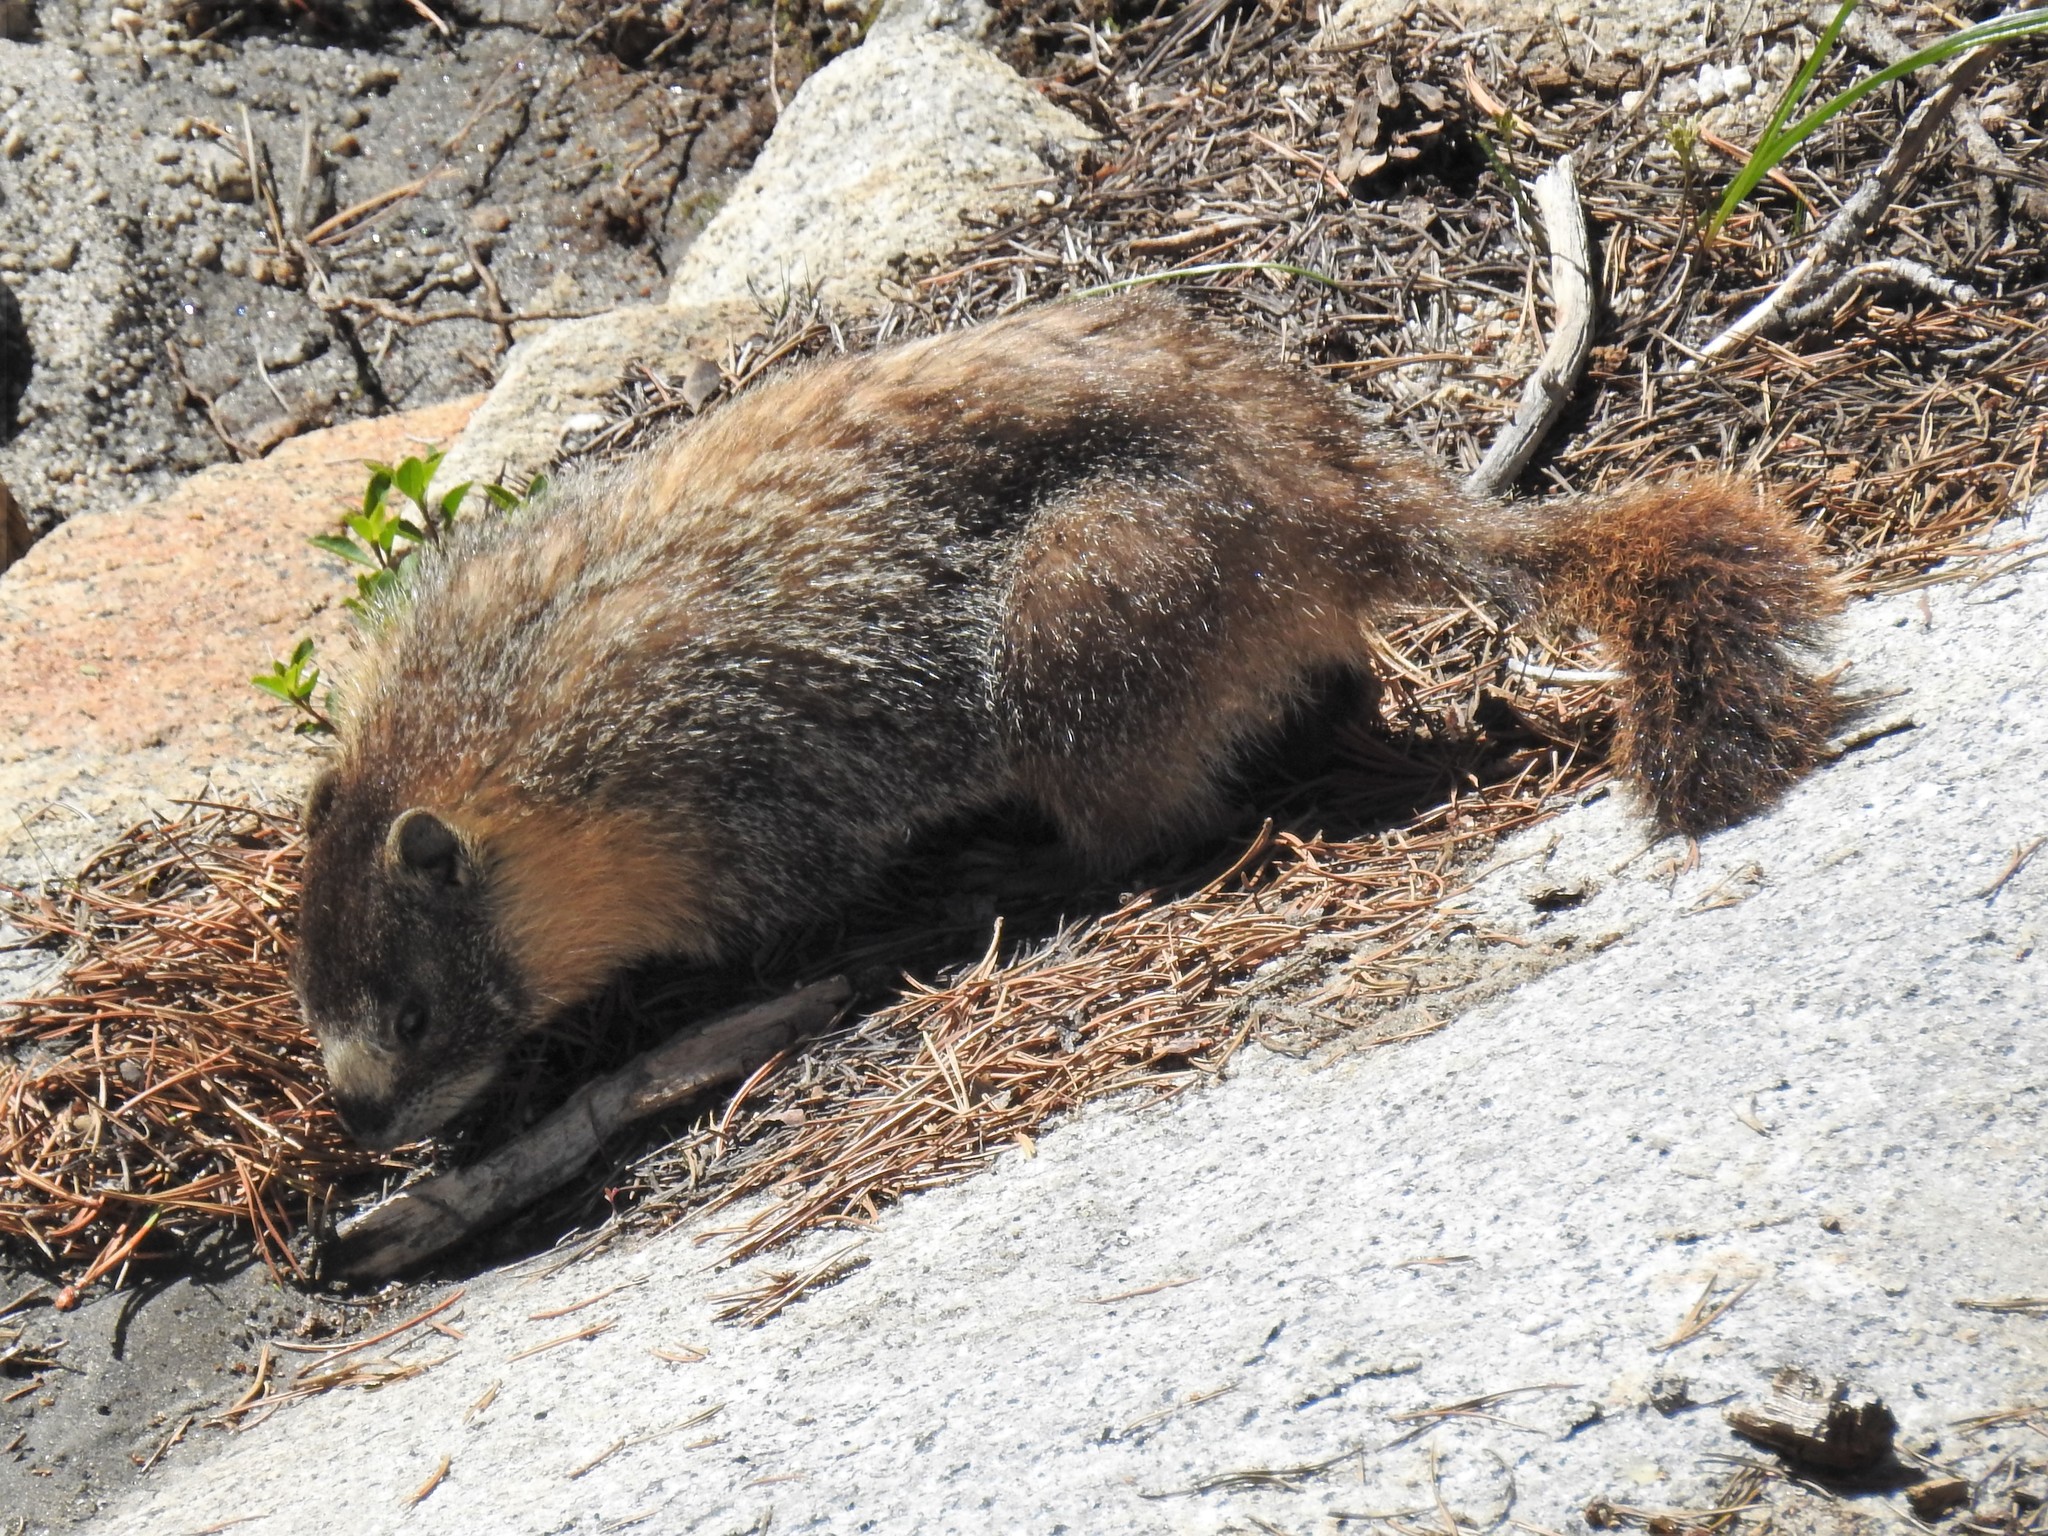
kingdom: Animalia
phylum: Chordata
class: Mammalia
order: Rodentia
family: Sciuridae
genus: Marmota
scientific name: Marmota flaviventris
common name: Yellow-bellied marmot
